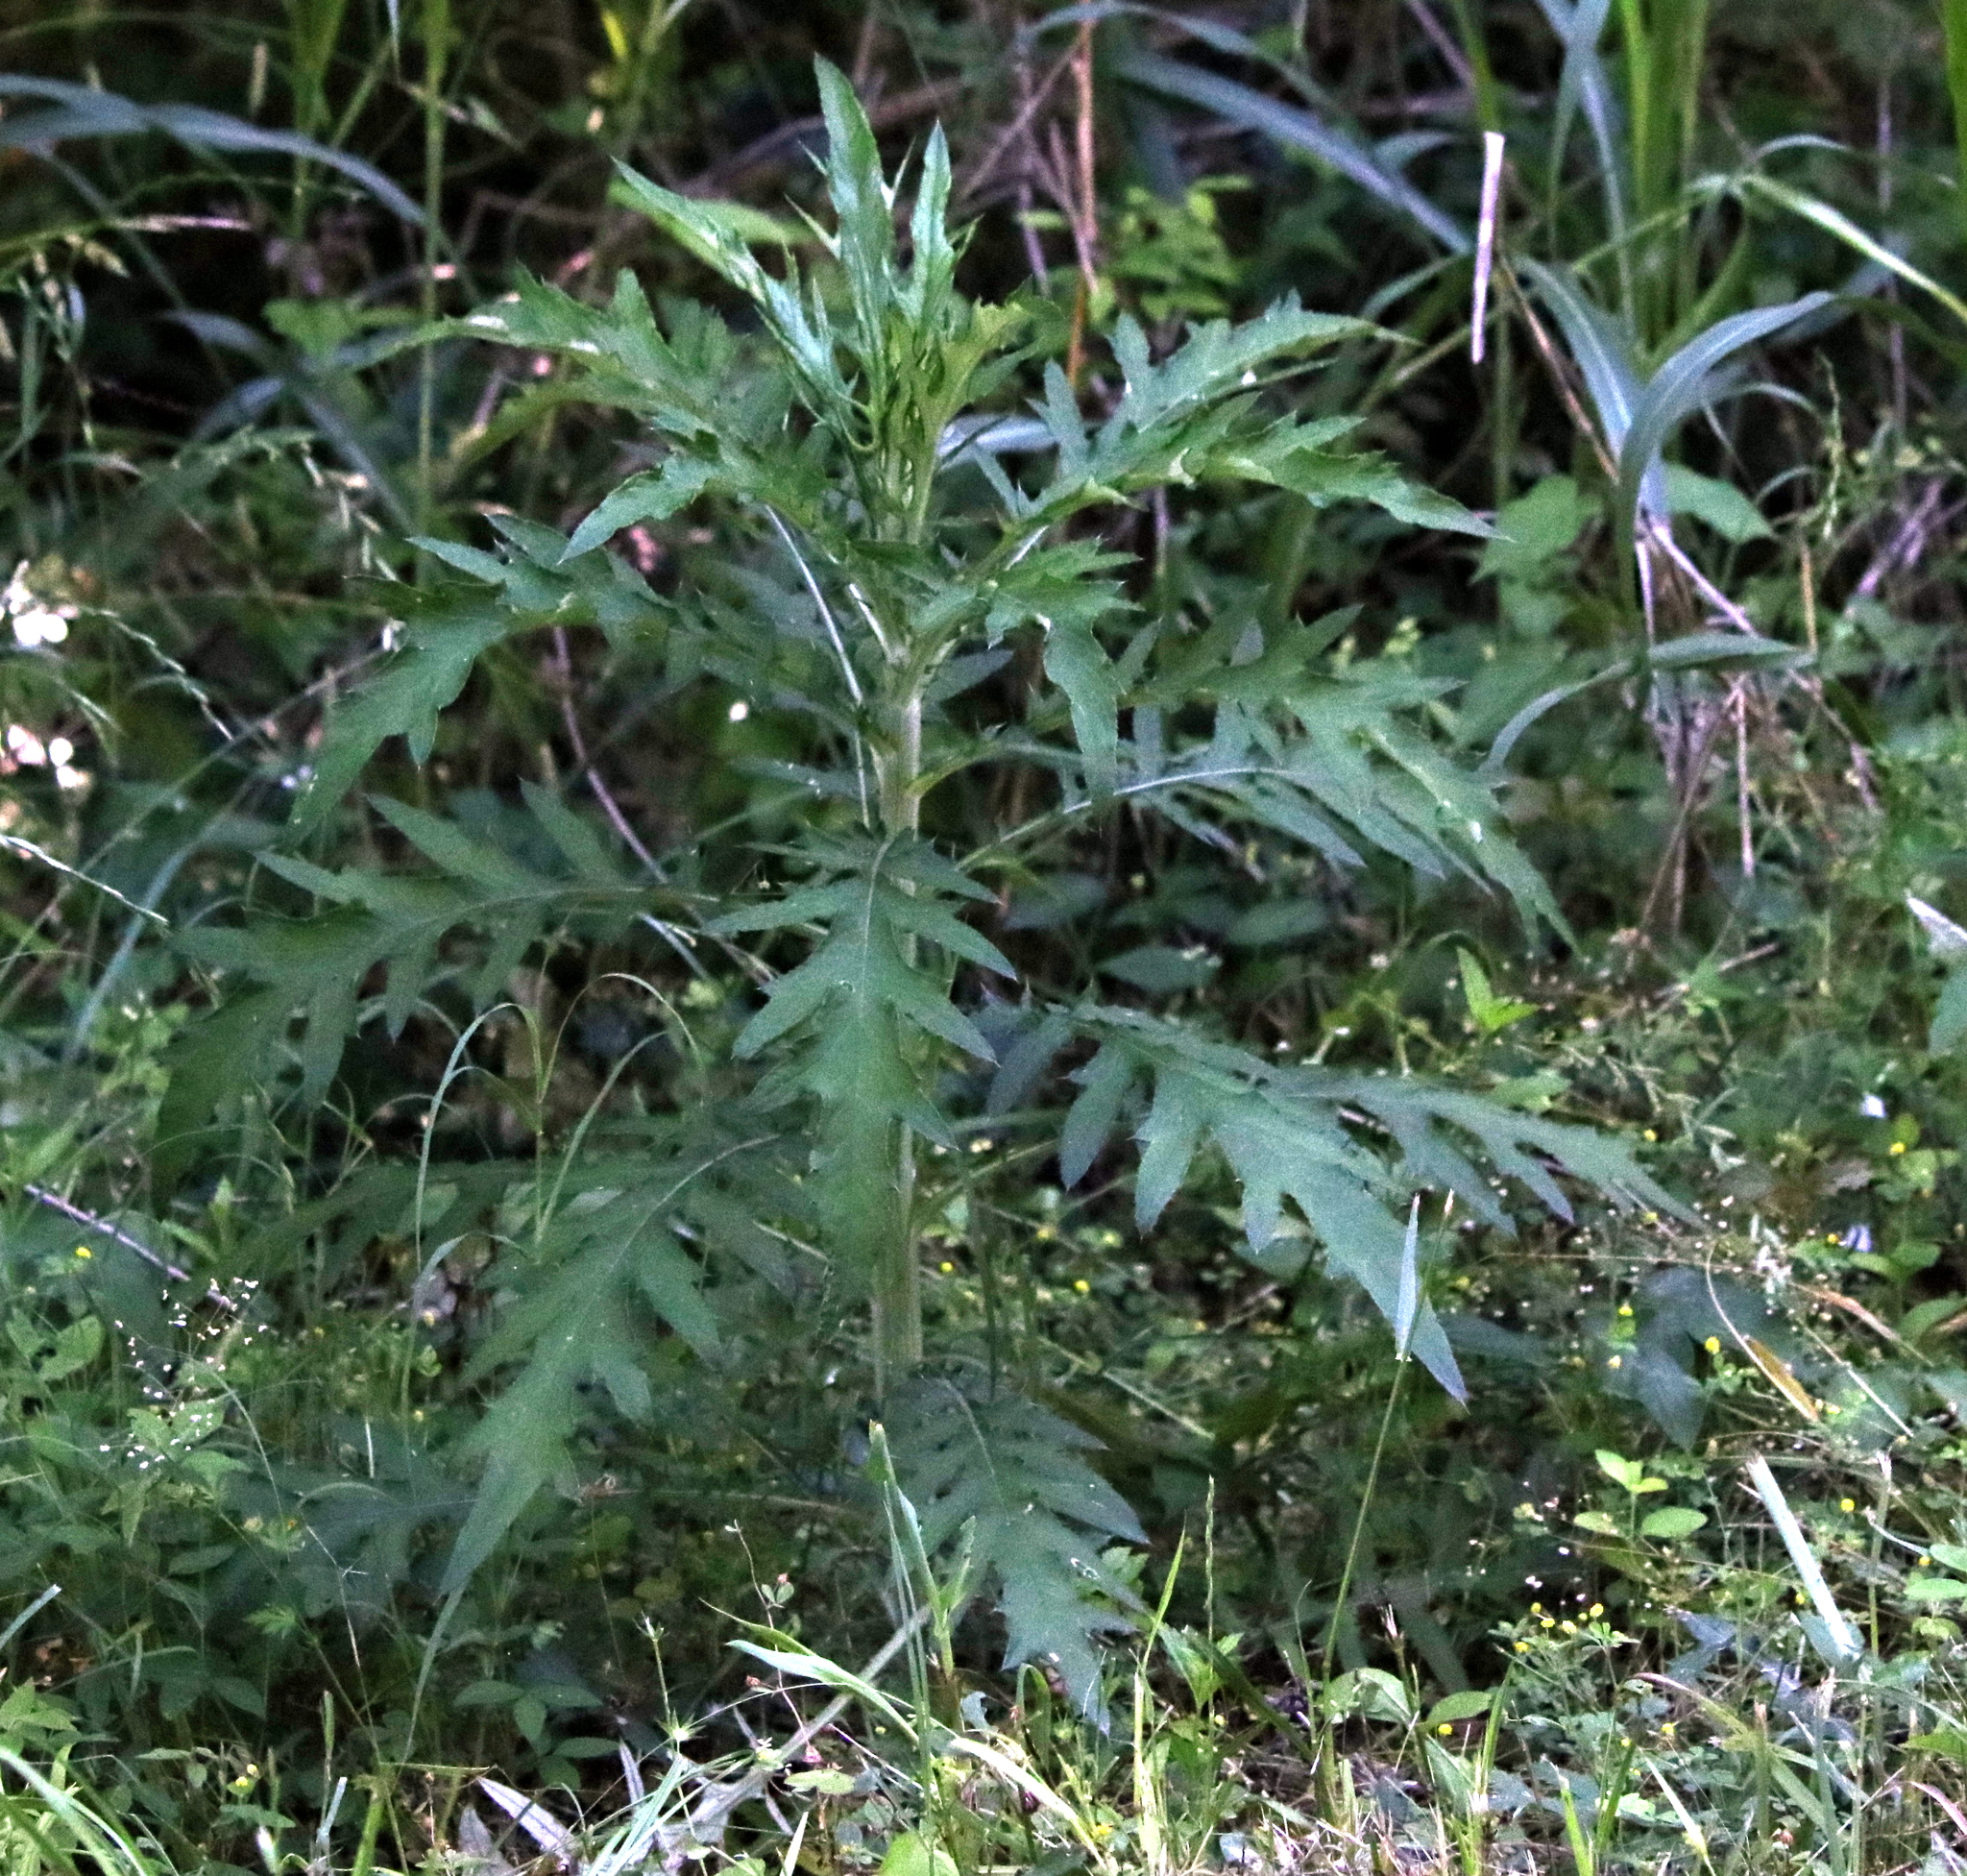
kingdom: Plantae
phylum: Tracheophyta
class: Magnoliopsida
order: Asterales
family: Asteraceae
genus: Cirsium
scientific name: Cirsium discolor
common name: Field thistle
